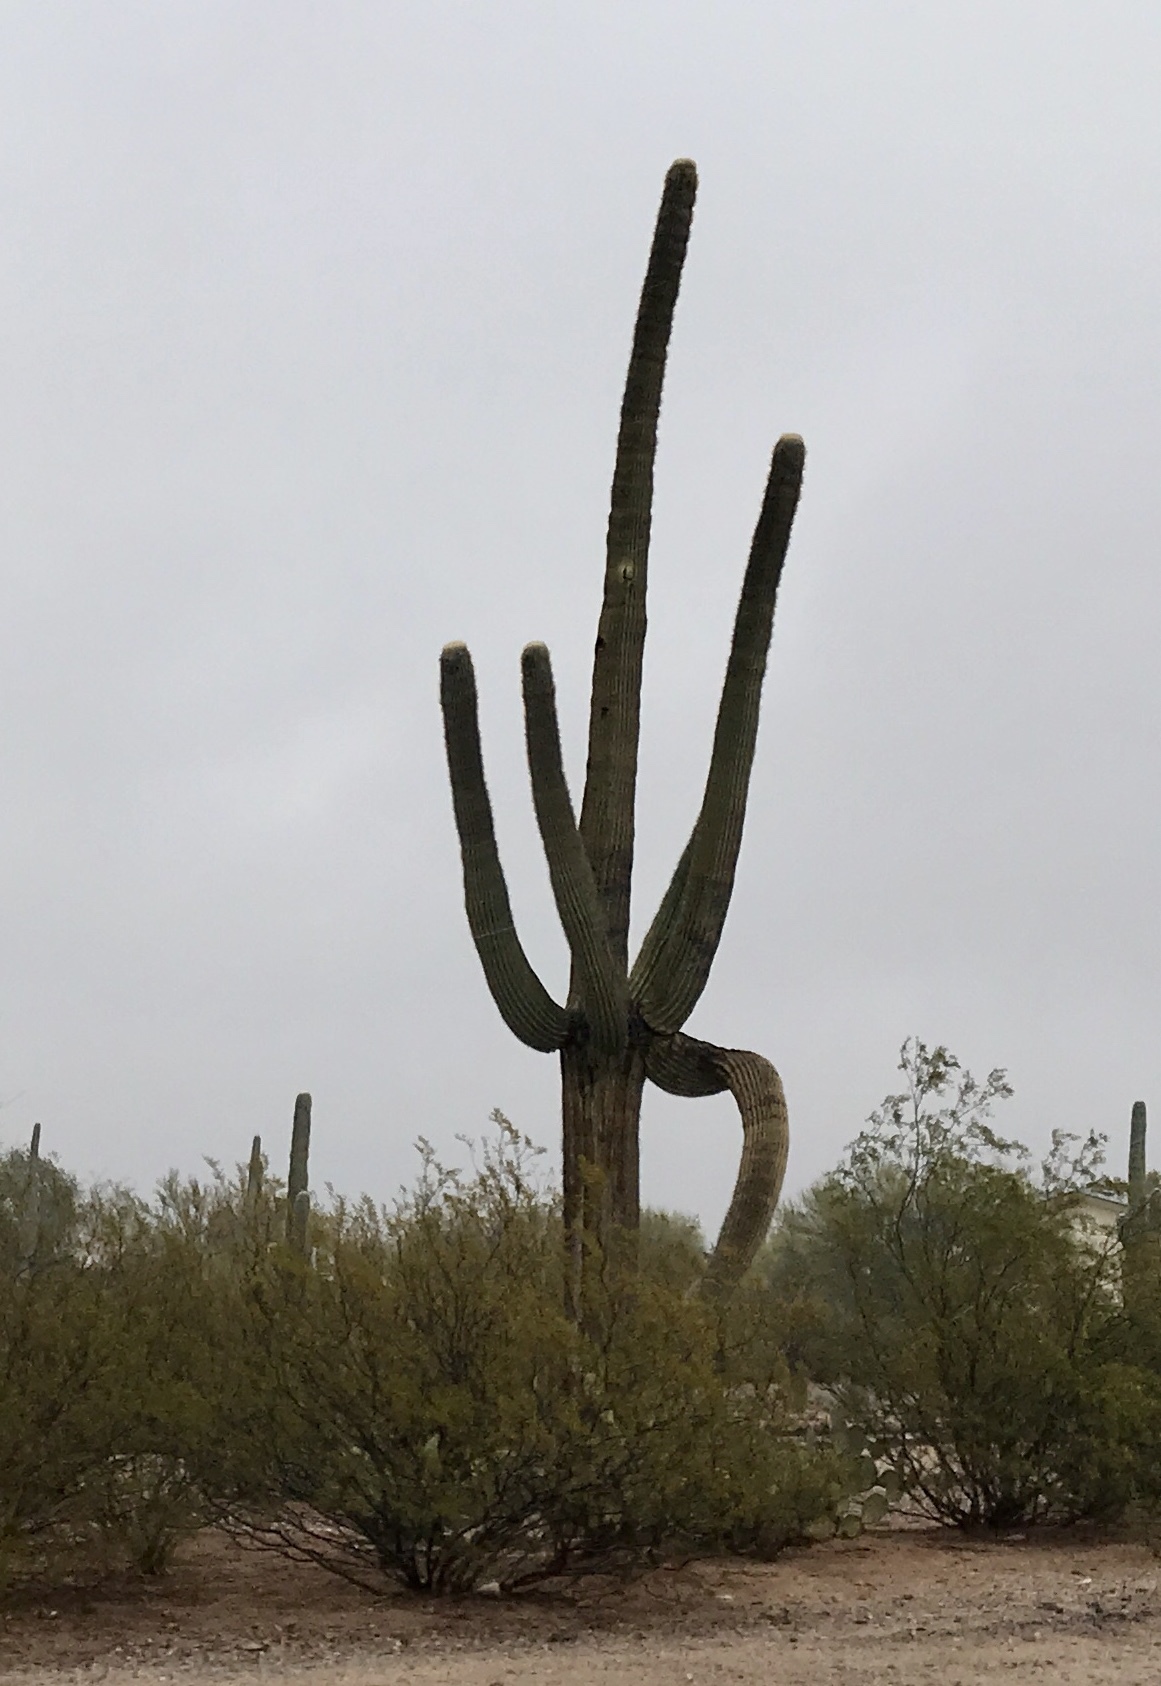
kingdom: Plantae
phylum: Tracheophyta
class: Magnoliopsida
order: Caryophyllales
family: Cactaceae
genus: Carnegiea
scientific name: Carnegiea gigantea
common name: Saguaro
